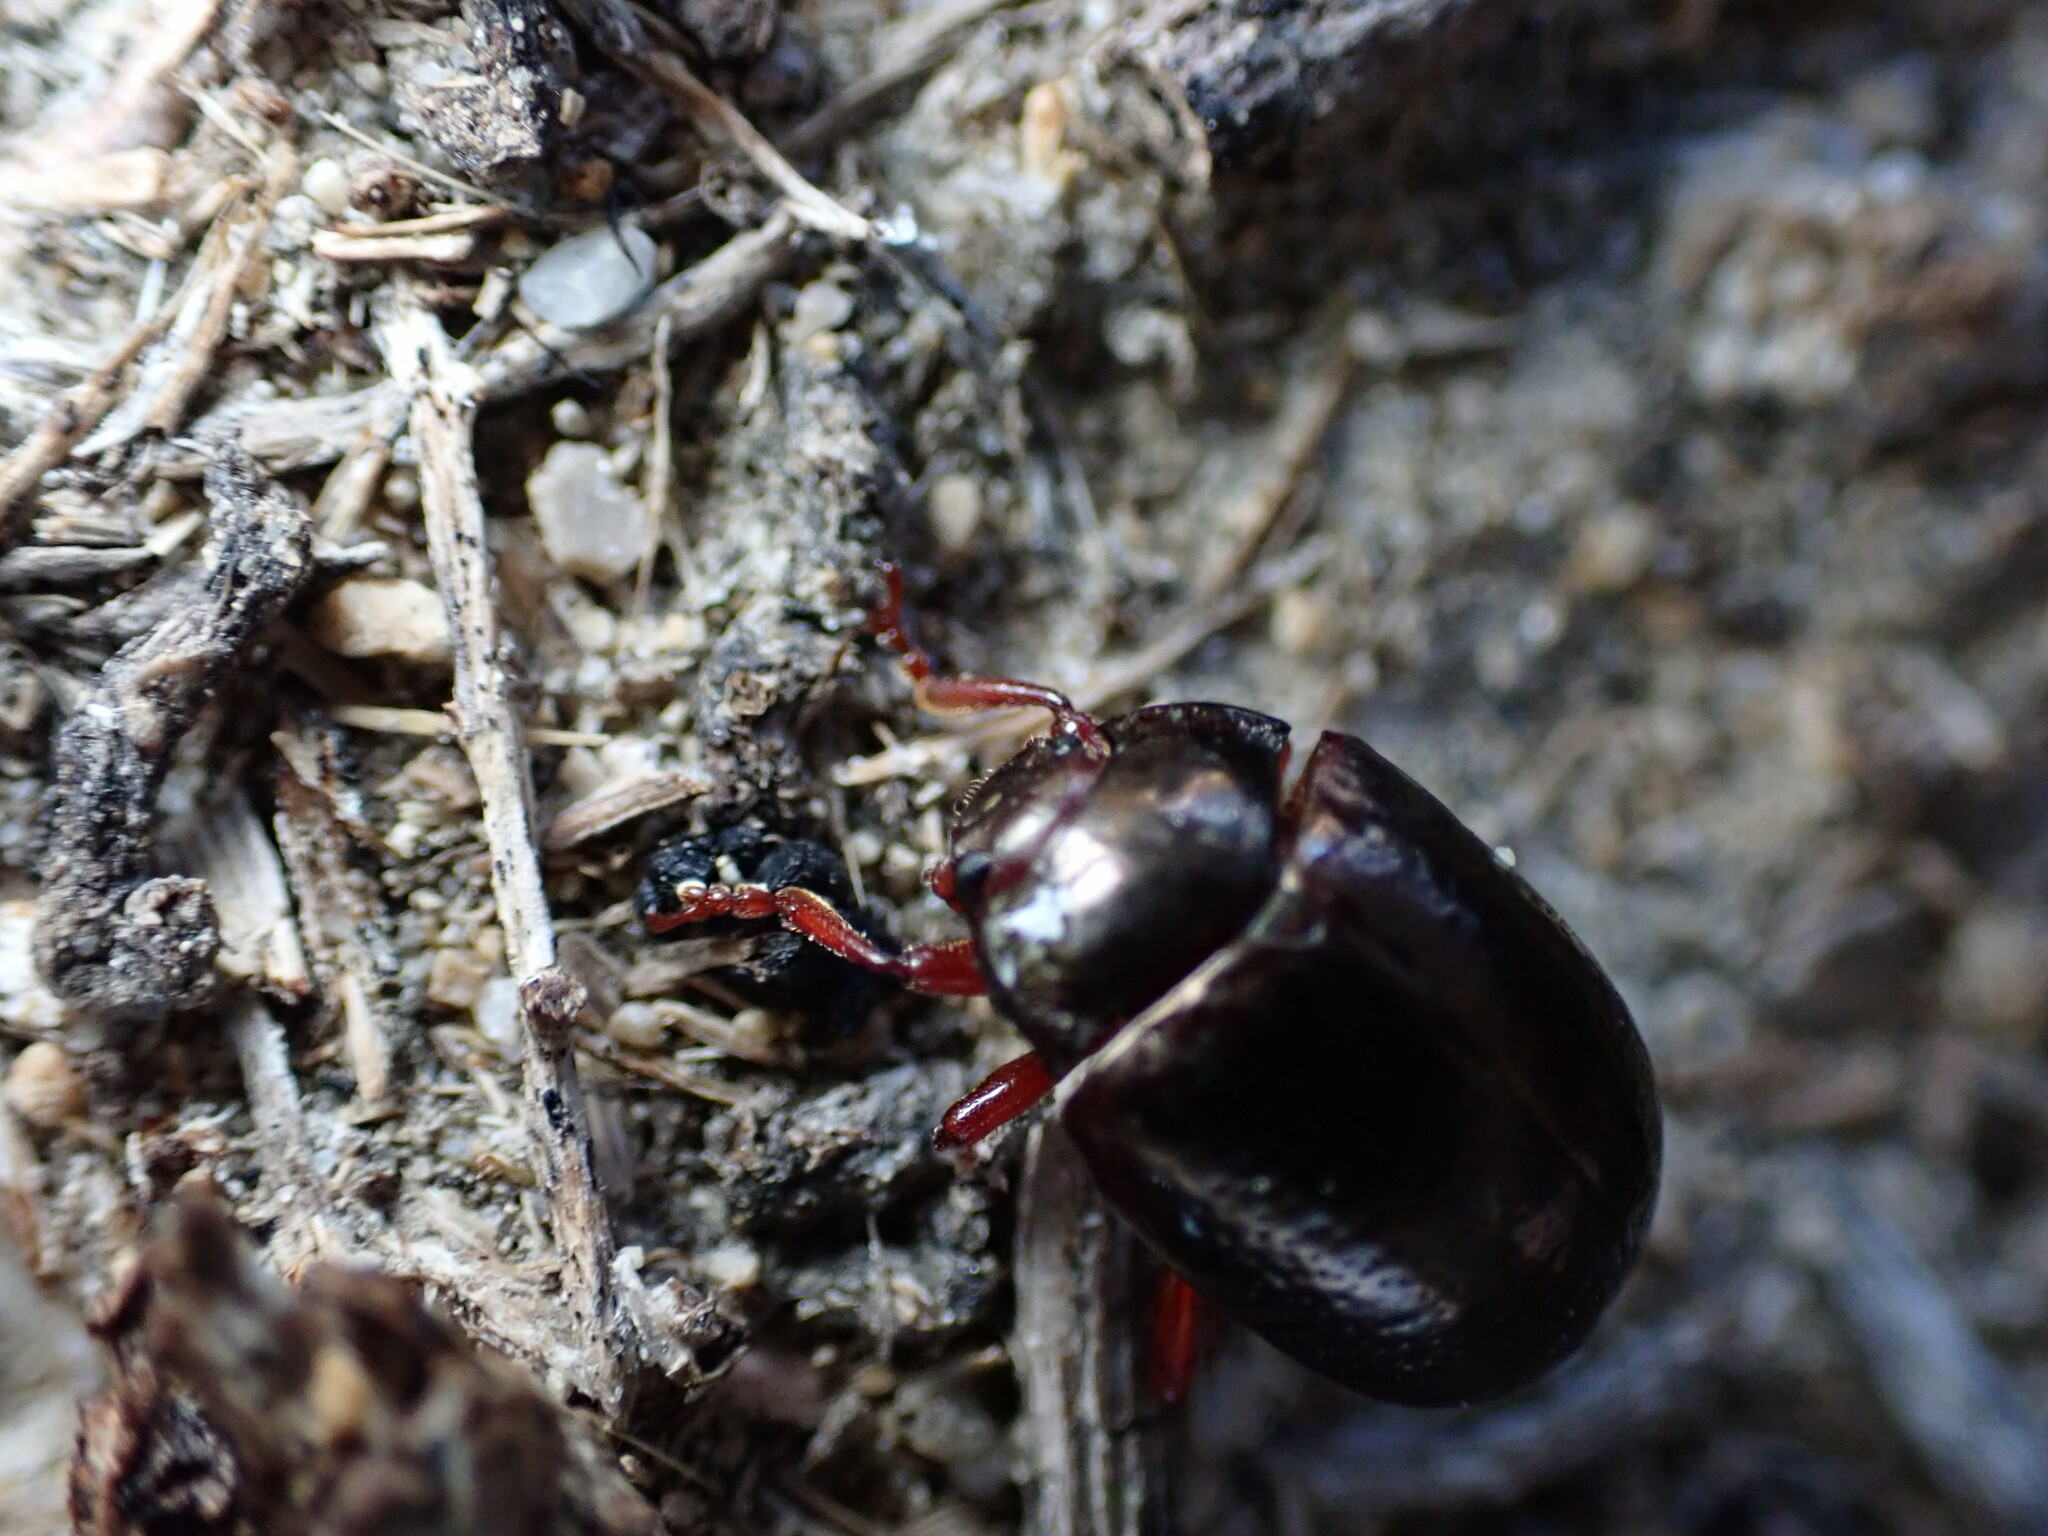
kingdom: Animalia
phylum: Arthropoda
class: Insecta
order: Coleoptera
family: Chrysomelidae
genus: Chrysolina
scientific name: Chrysolina bankii
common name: Leaf beetle
